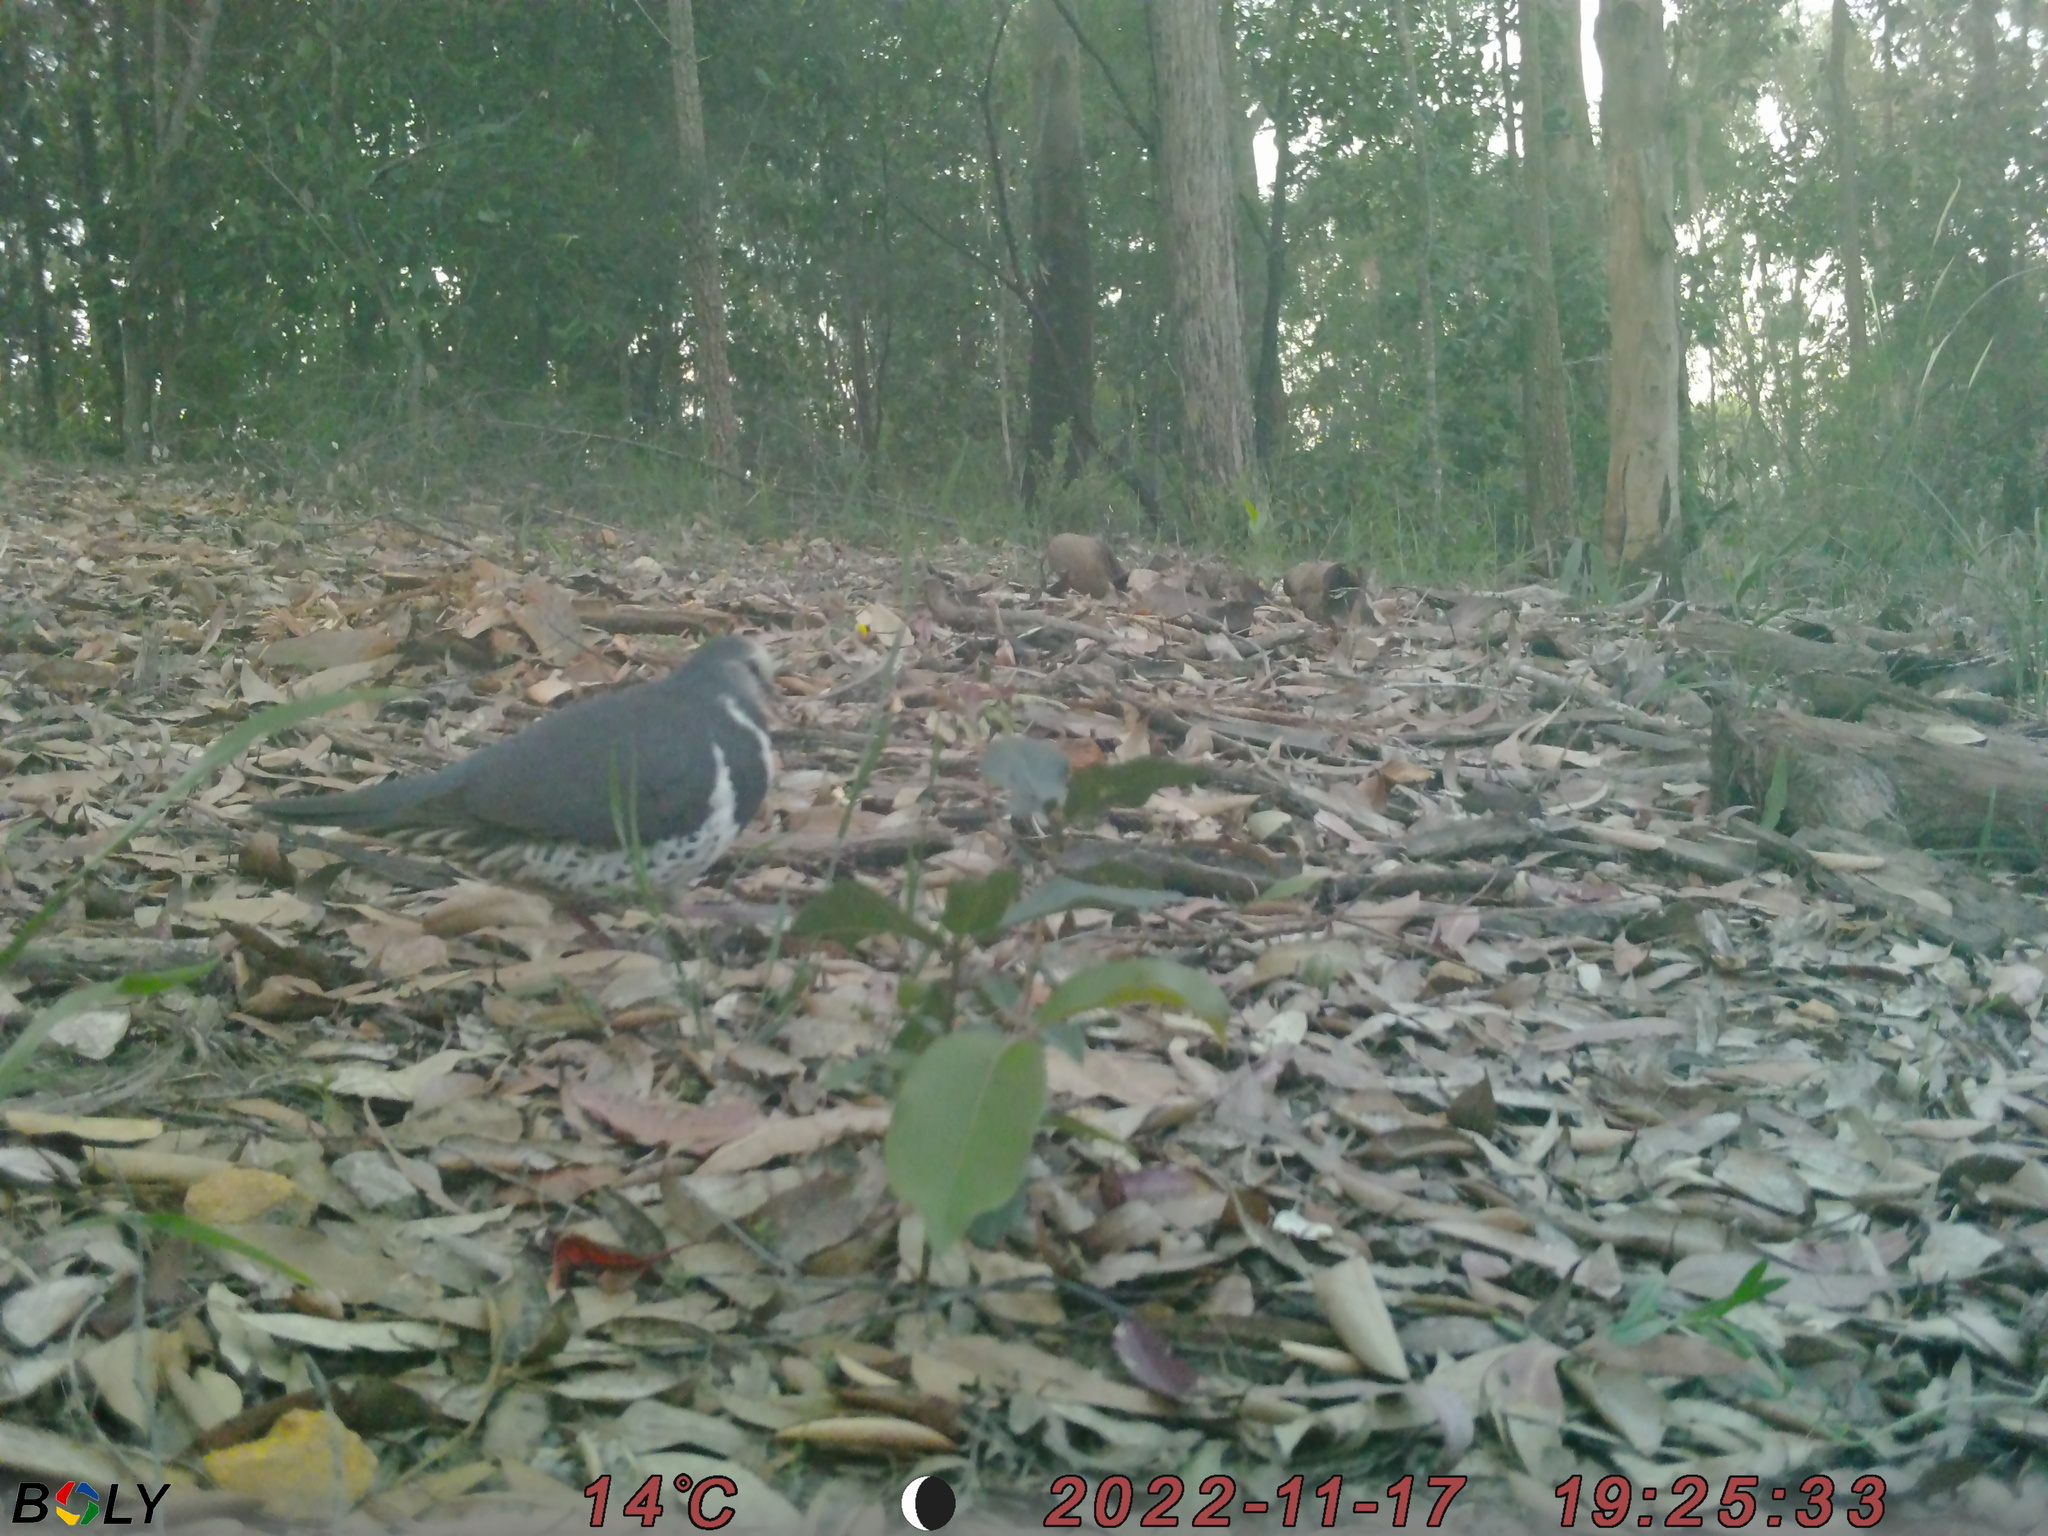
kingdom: Animalia
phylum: Chordata
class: Aves
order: Columbiformes
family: Columbidae
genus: Leucosarcia
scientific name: Leucosarcia melanoleuca
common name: Wonga pigeon
